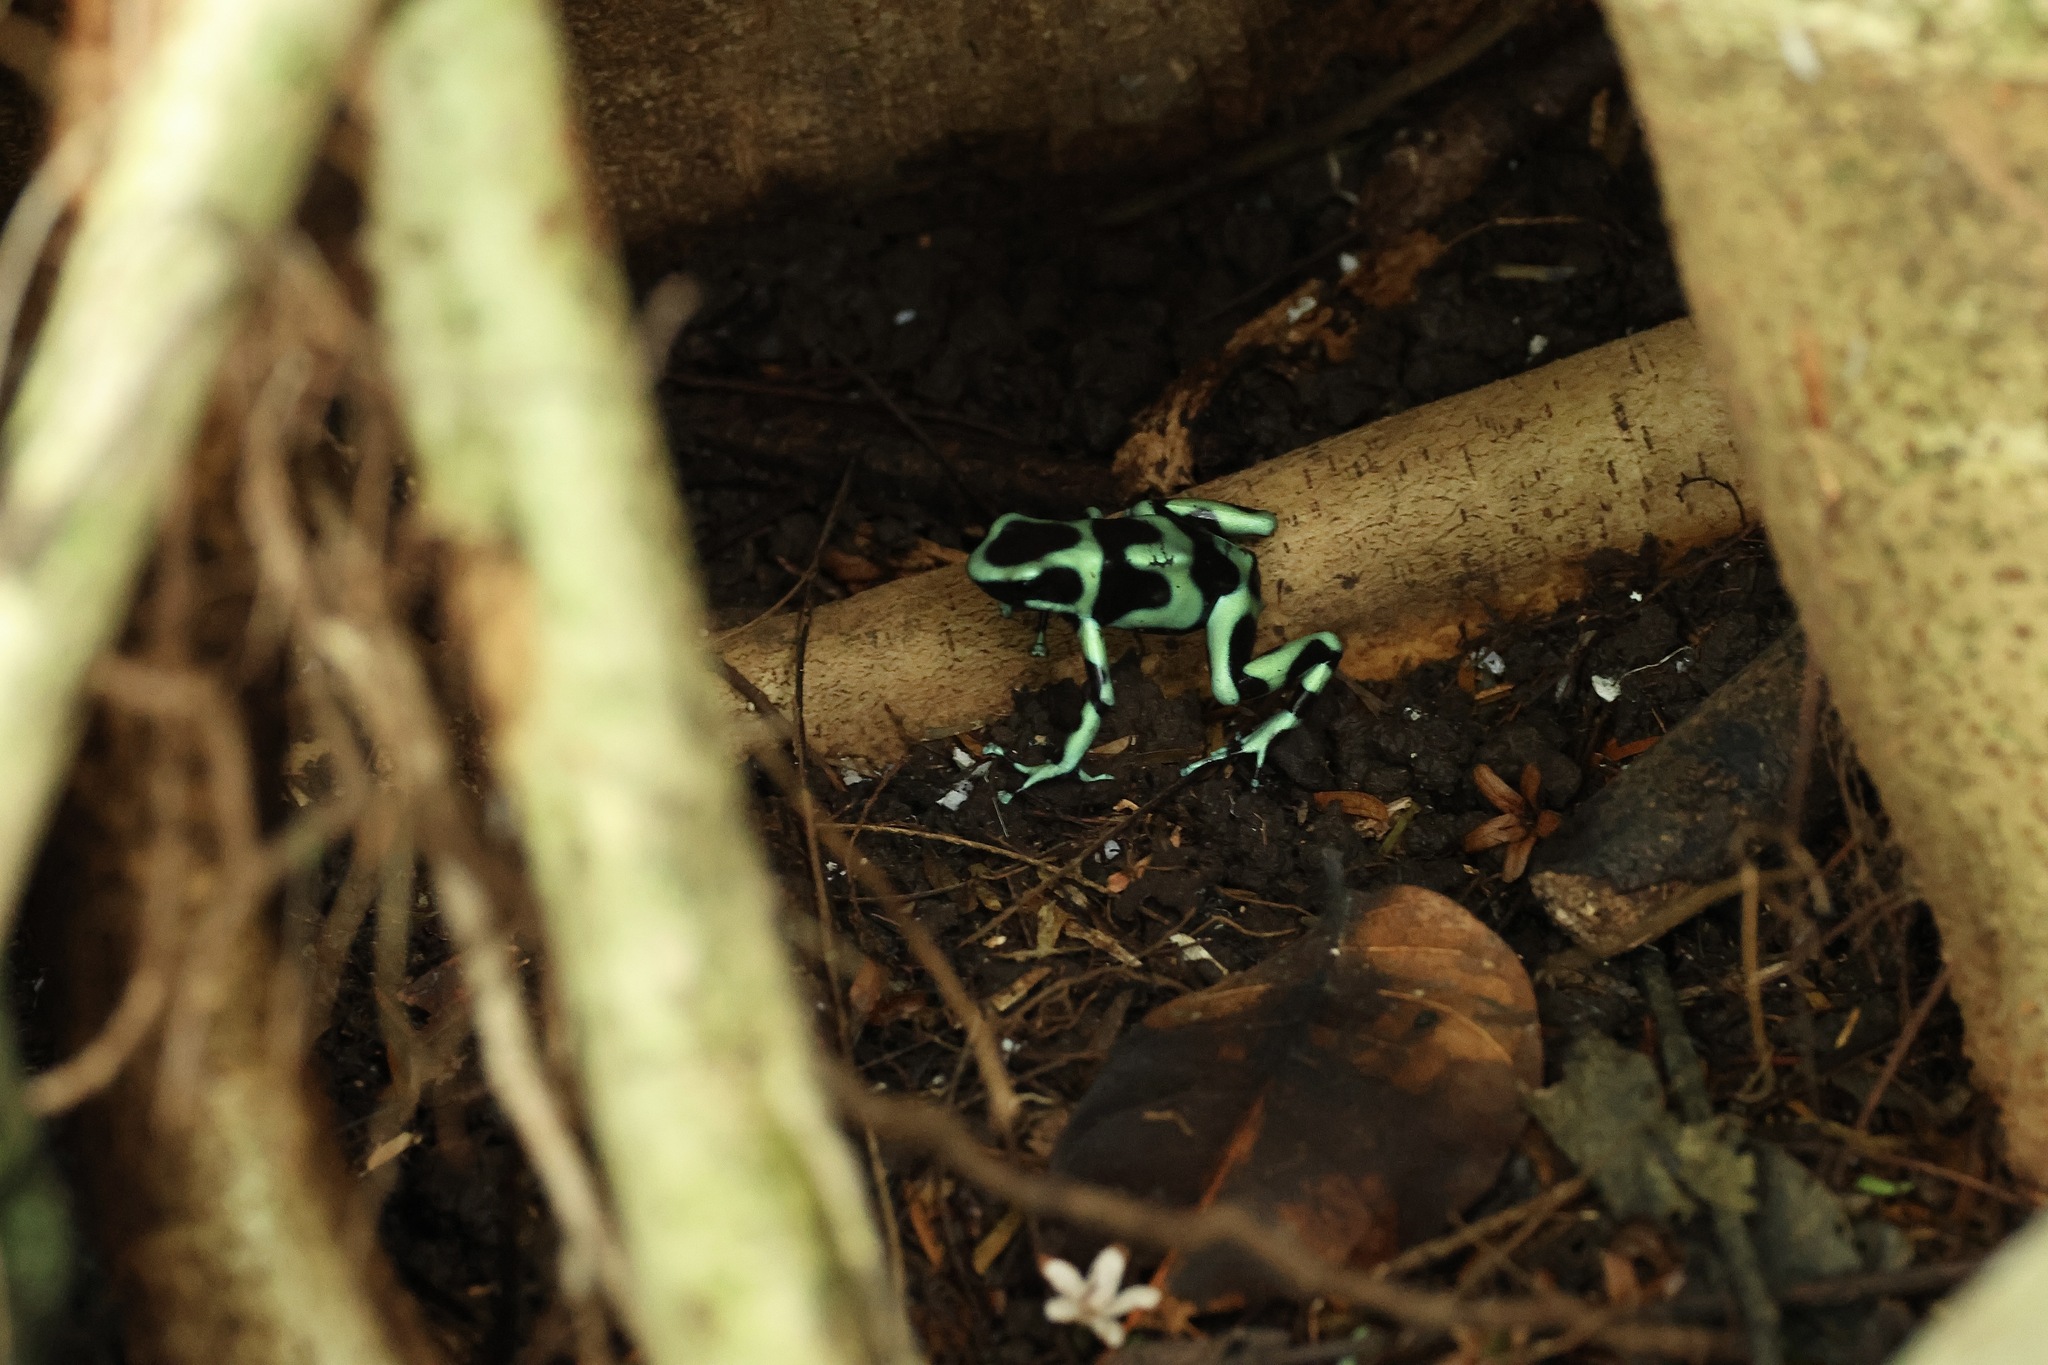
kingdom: Animalia
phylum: Chordata
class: Amphibia
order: Anura
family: Dendrobatidae
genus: Dendrobates
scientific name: Dendrobates auratus
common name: Green and black poison dart frog
